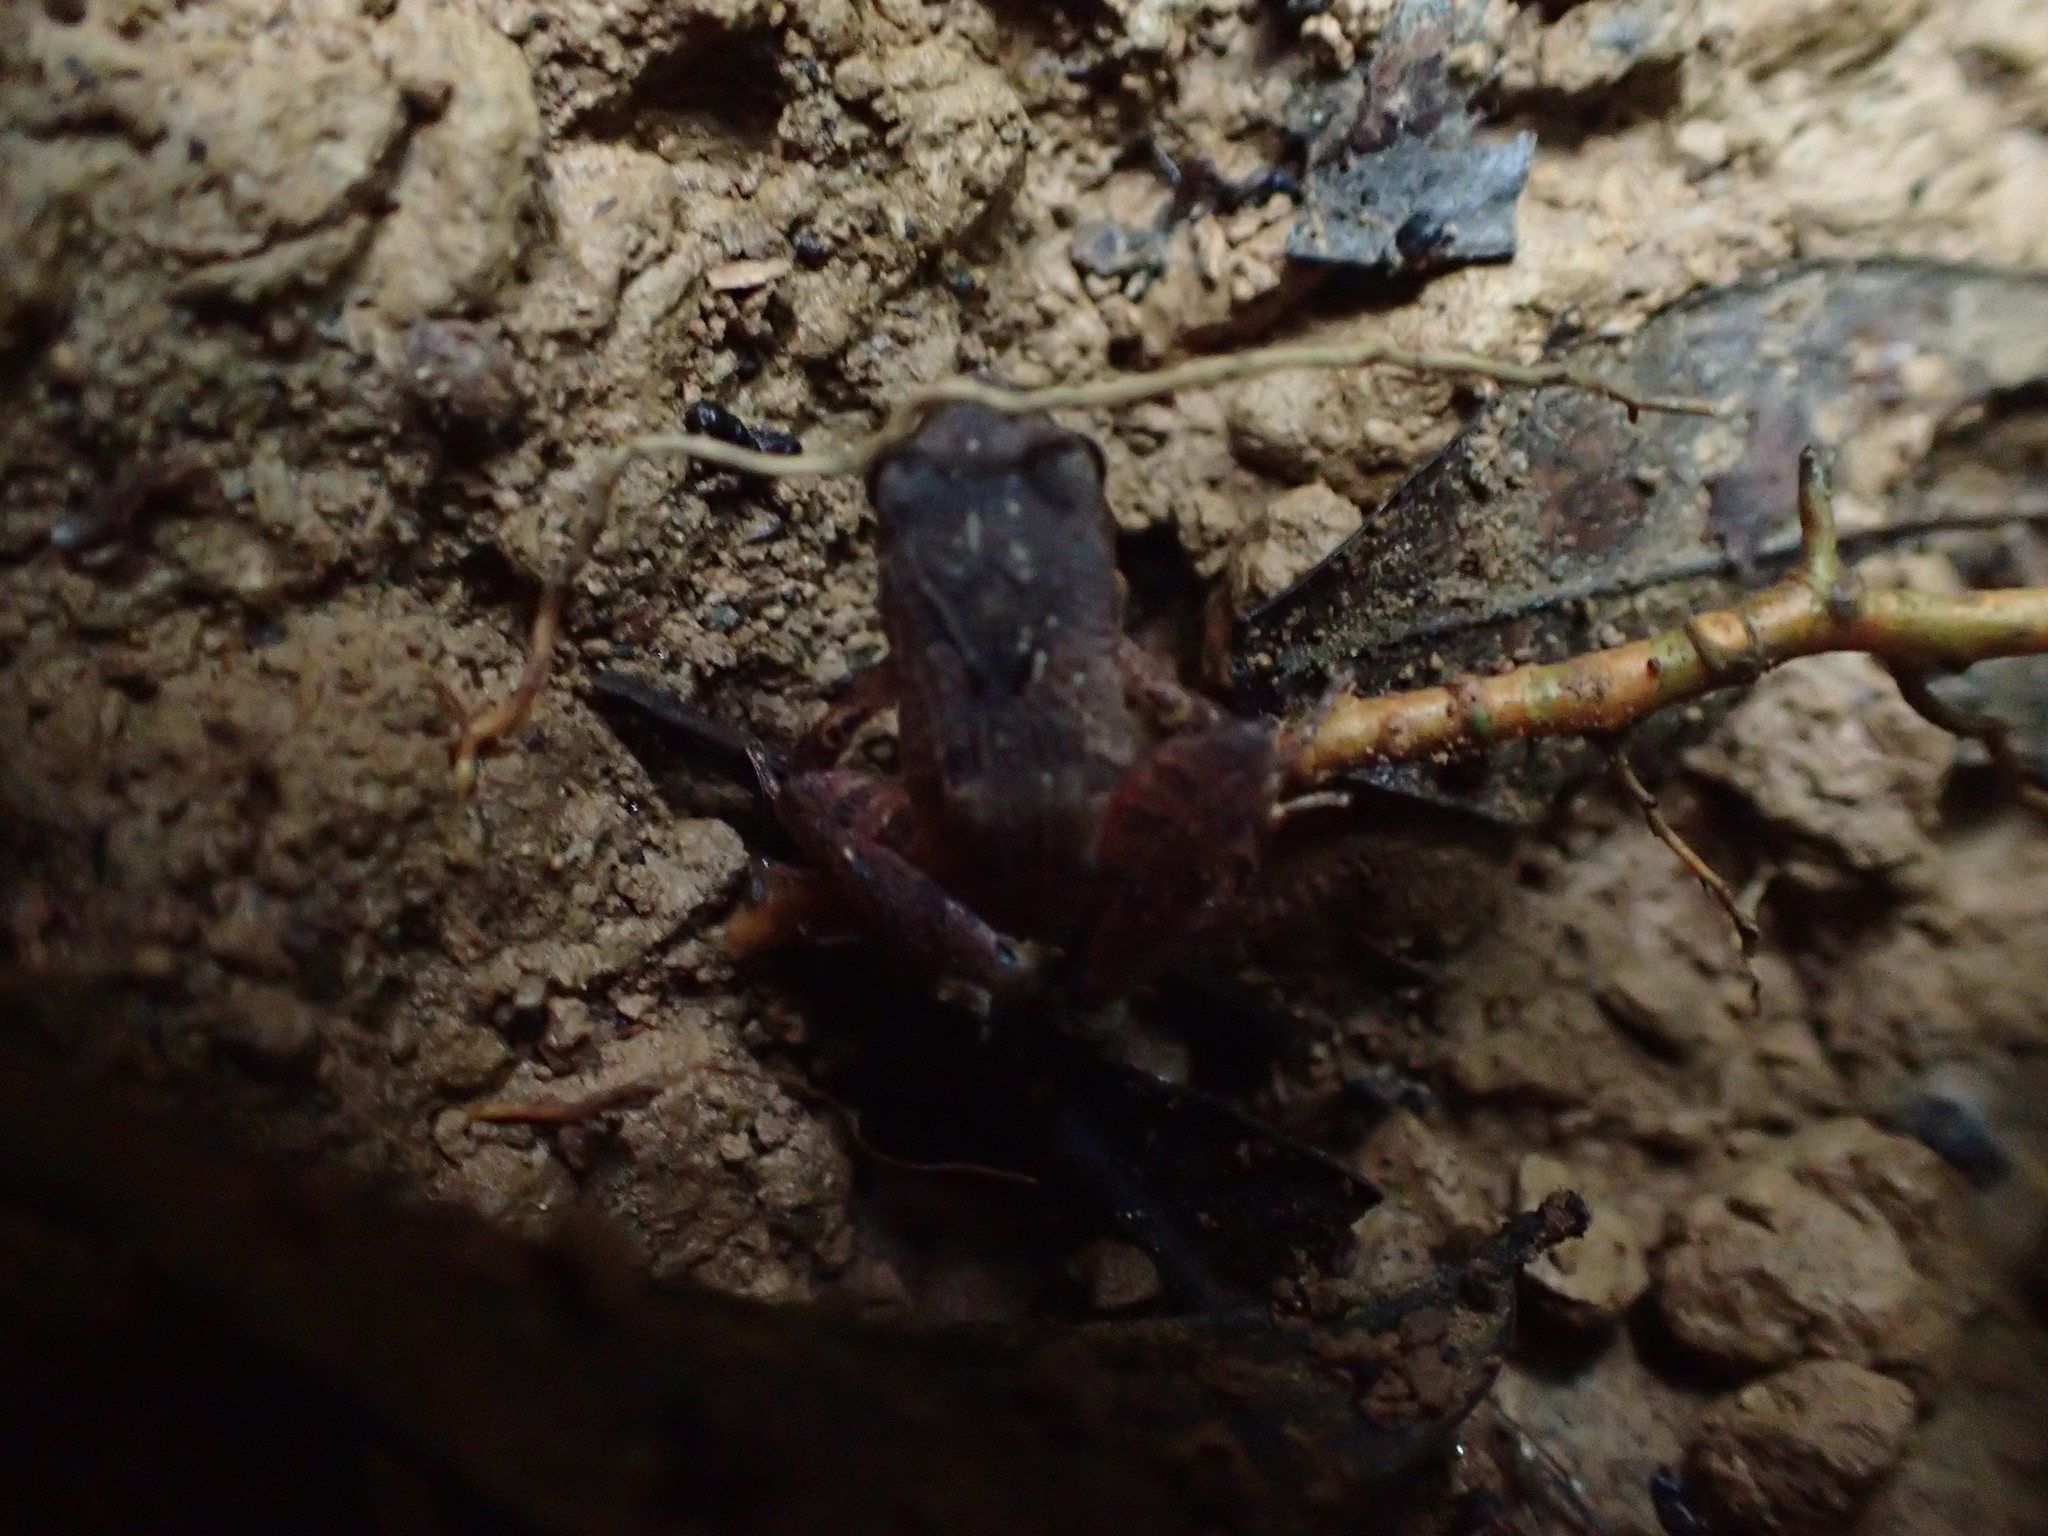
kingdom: Animalia
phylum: Chordata
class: Amphibia
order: Anura
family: Craugastoridae
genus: Craugastor
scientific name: Craugastor stejnegerianus
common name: Stejneger's robber frog
